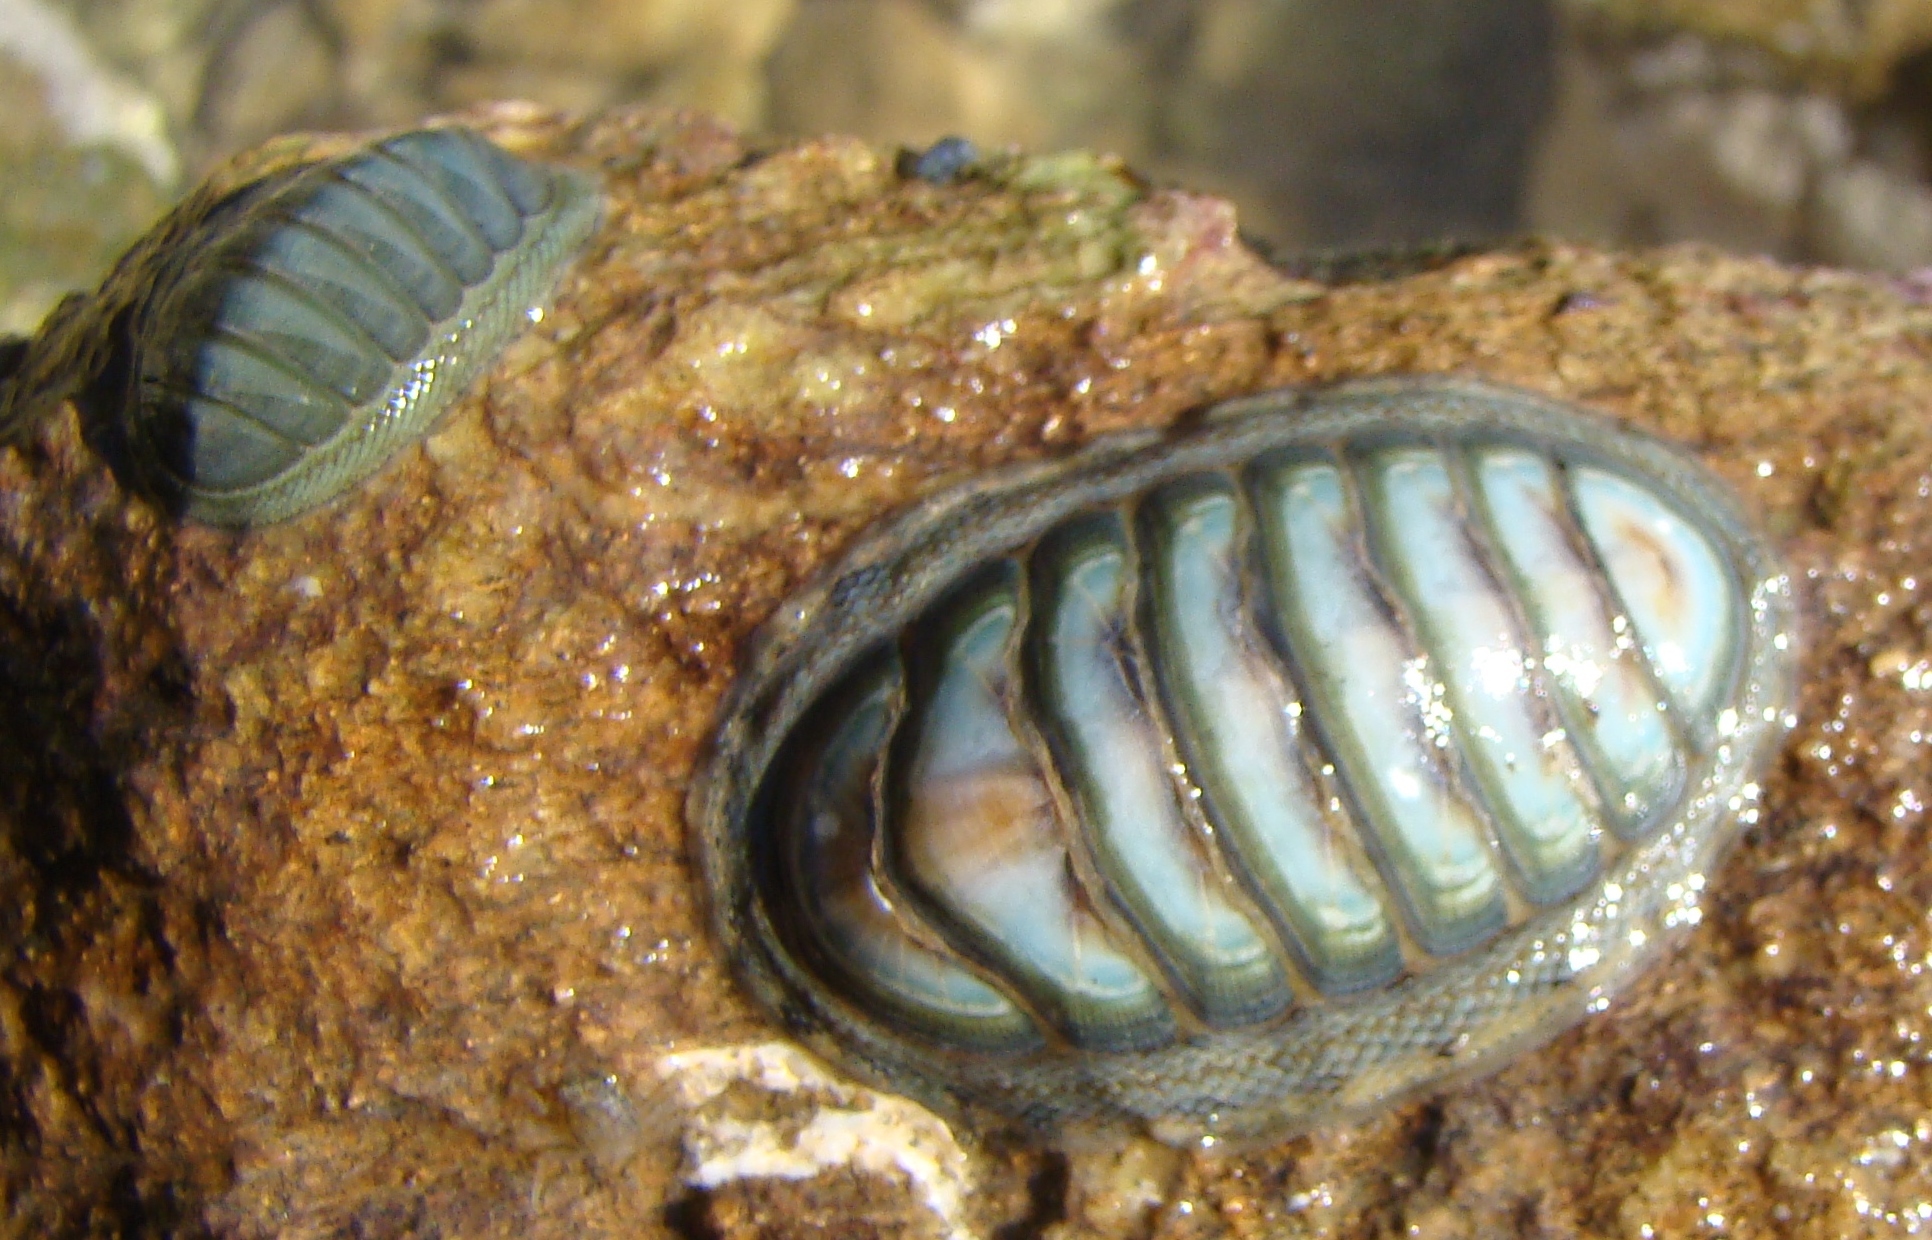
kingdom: Animalia
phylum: Mollusca
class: Polyplacophora
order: Chitonida
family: Chitonidae
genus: Chiton
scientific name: Chiton glaucus
